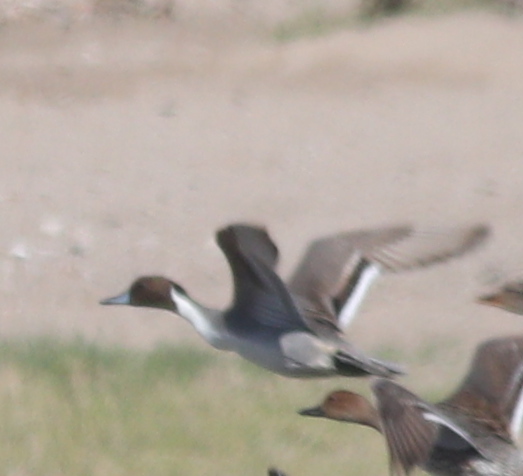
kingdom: Animalia
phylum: Chordata
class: Aves
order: Anseriformes
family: Anatidae
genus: Anas
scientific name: Anas acuta
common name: Northern pintail
